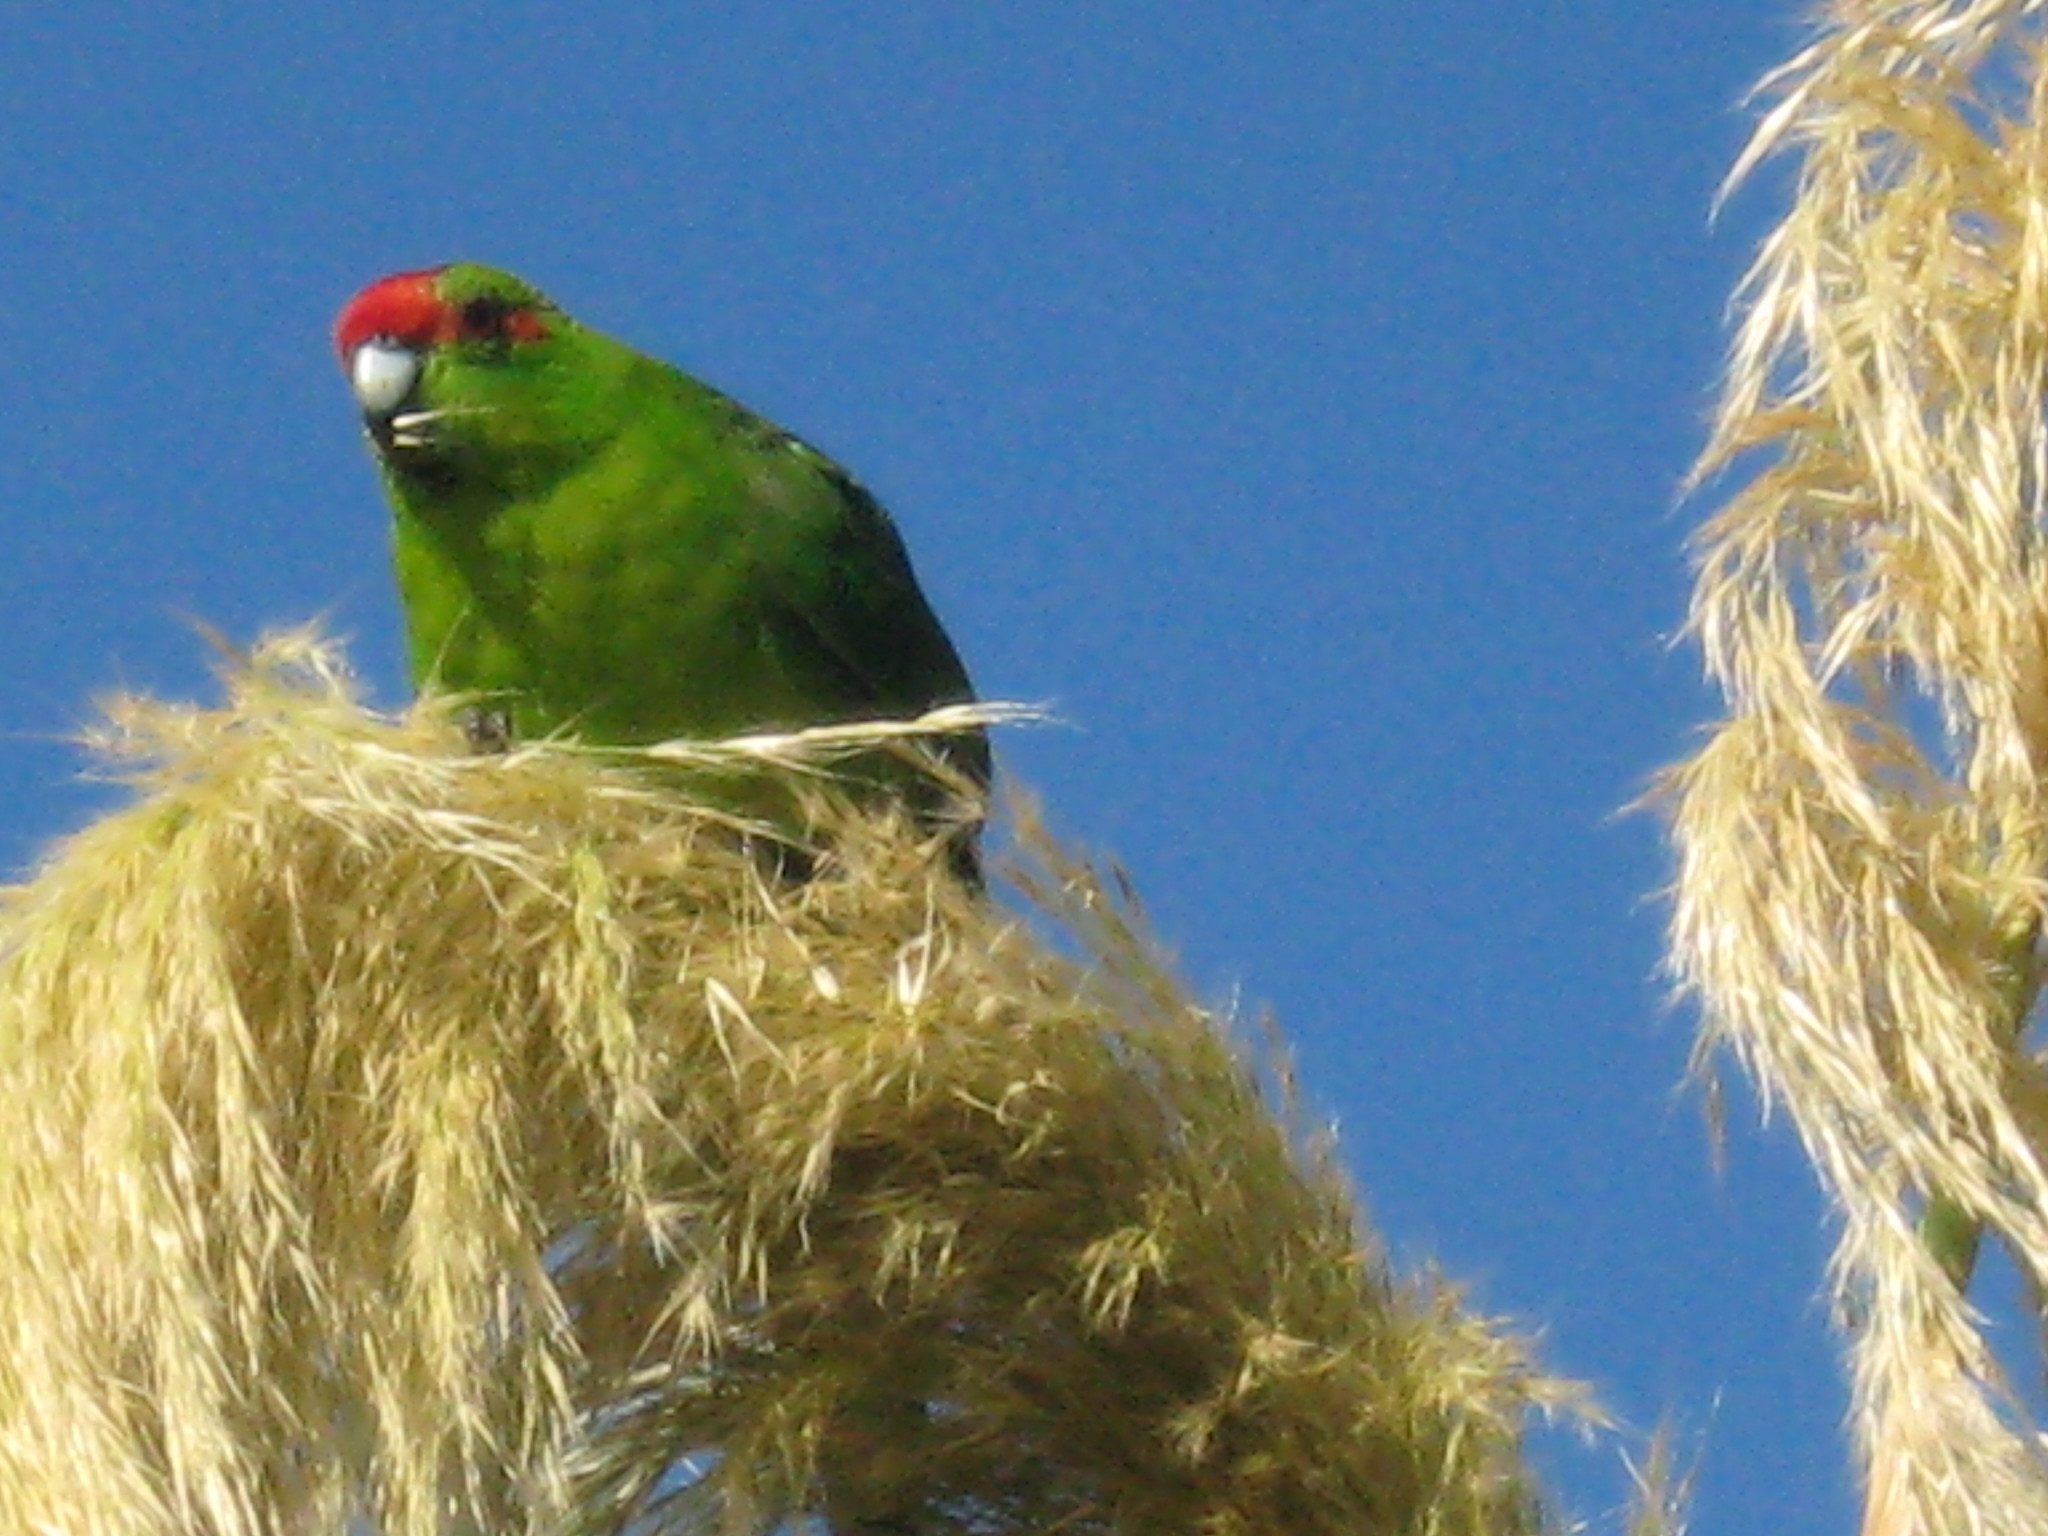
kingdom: Animalia
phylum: Chordata
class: Aves
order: Psittaciformes
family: Psittacidae
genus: Cyanoramphus
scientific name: Cyanoramphus novaezelandiae
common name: Red-fronted parakeet
